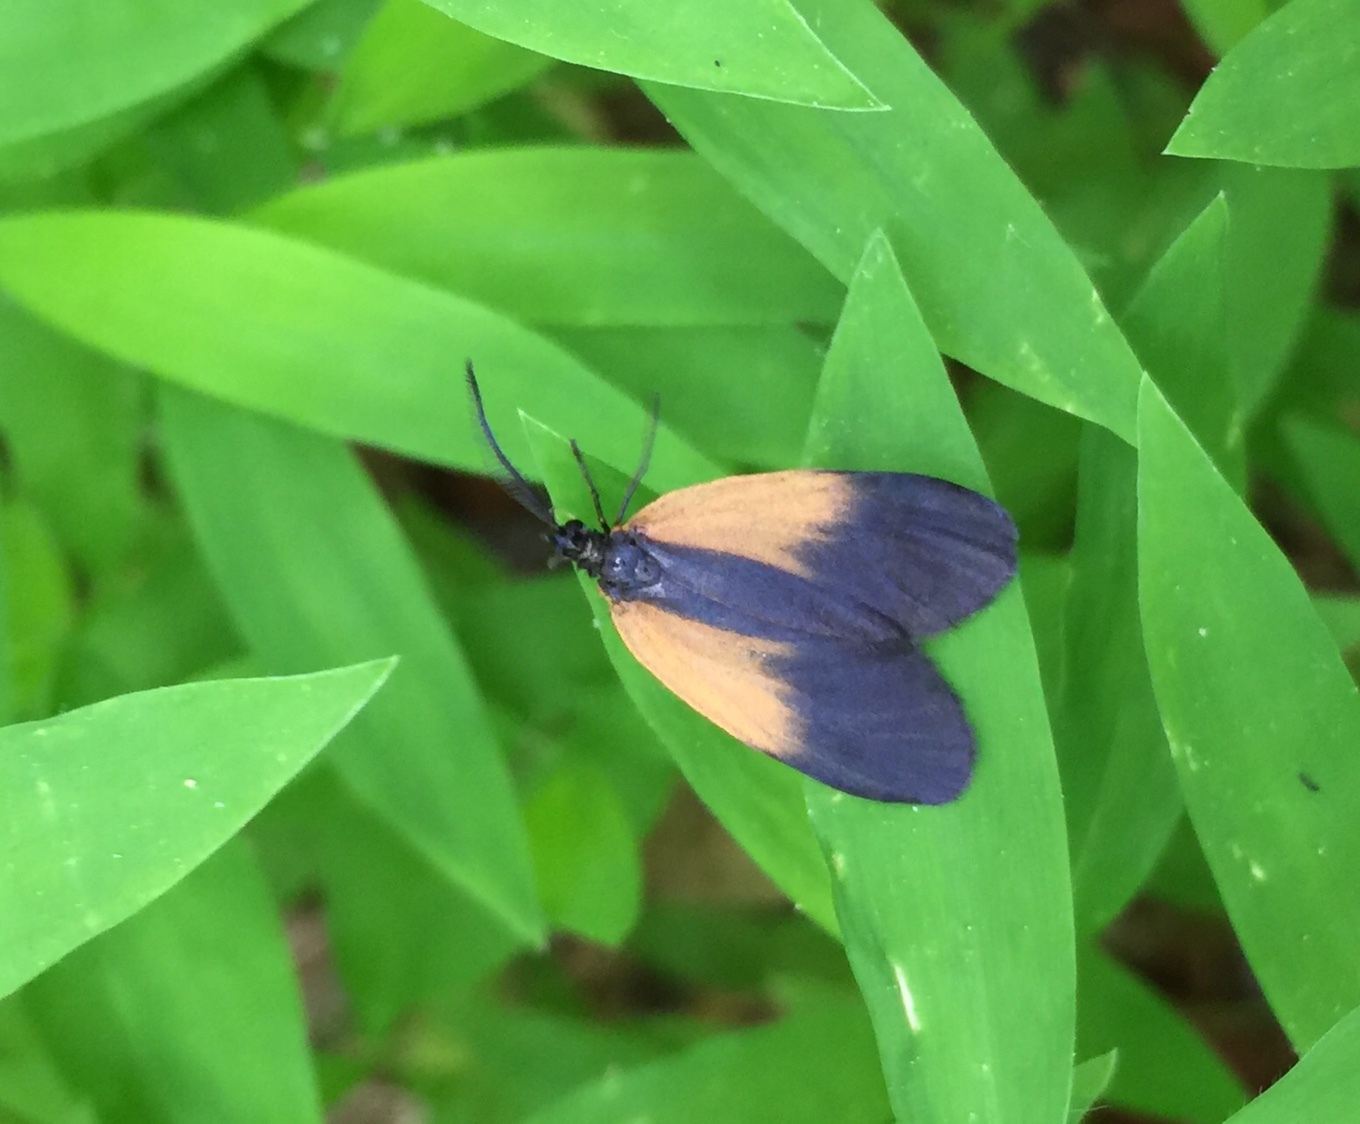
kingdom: Animalia
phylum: Arthropoda
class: Insecta
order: Lepidoptera
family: Zygaenidae
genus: Malthaca
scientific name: Malthaca dimidiata
